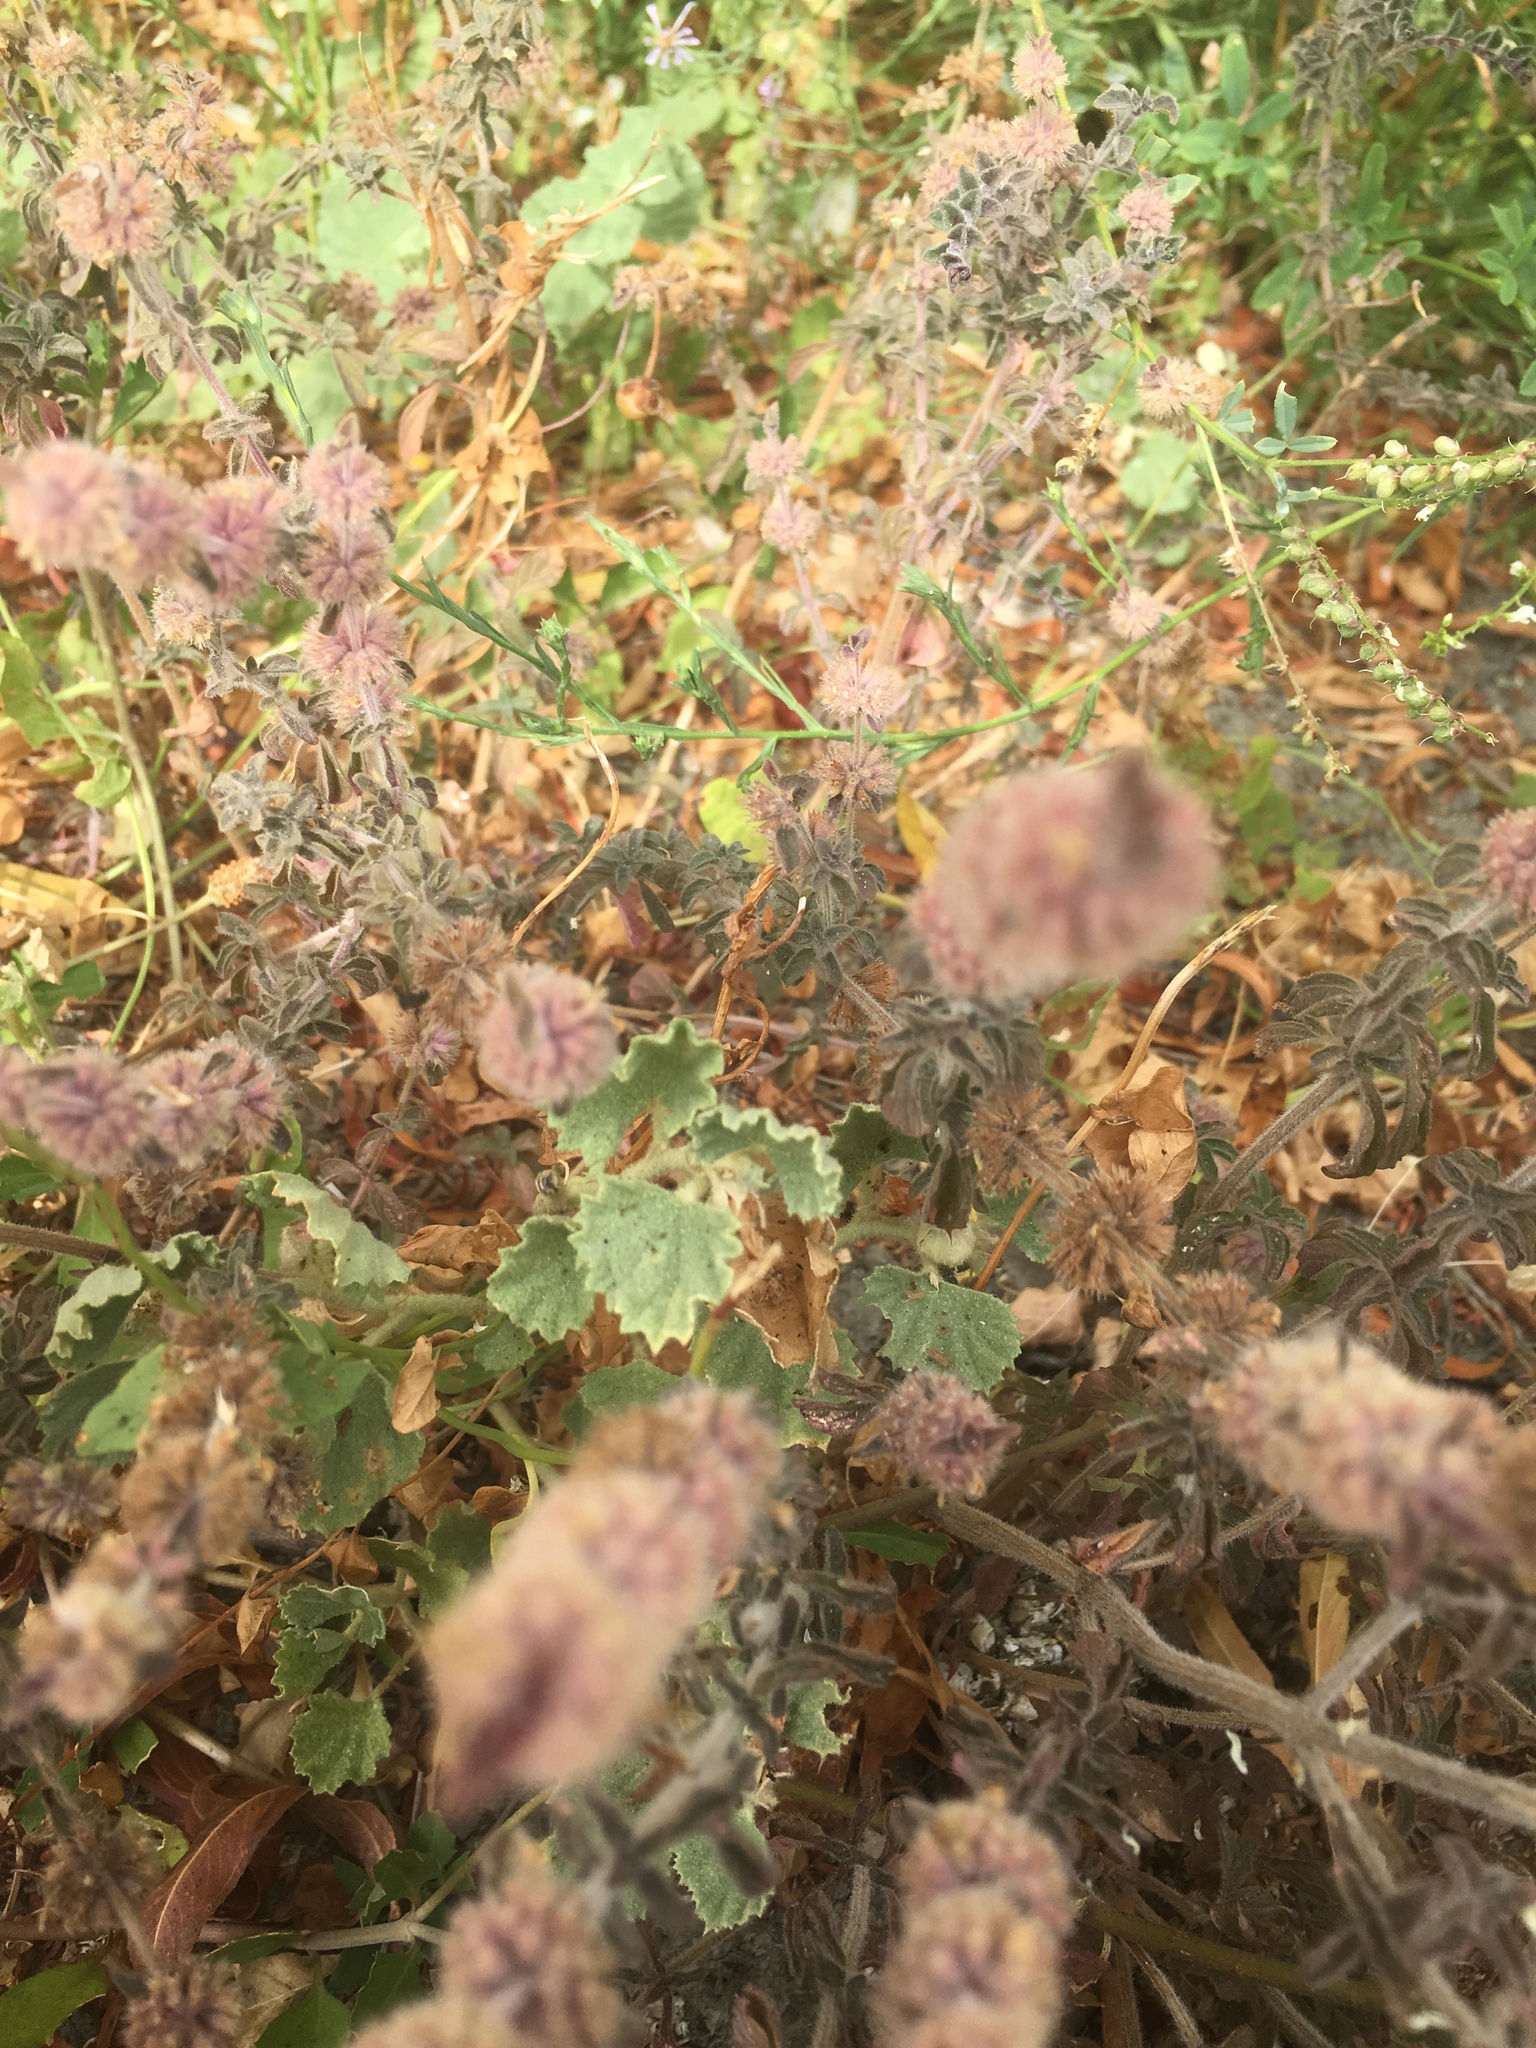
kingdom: Plantae
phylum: Tracheophyta
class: Magnoliopsida
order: Lamiales
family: Lamiaceae
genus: Mentha
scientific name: Mentha pulegium
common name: Pennyroyal
